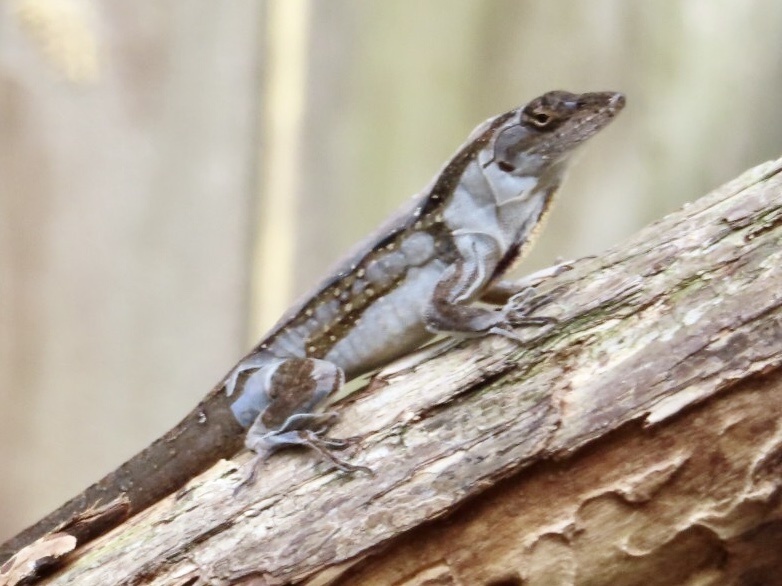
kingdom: Animalia
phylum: Chordata
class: Squamata
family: Dactyloidae
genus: Anolis
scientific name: Anolis sagrei
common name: Brown anole
